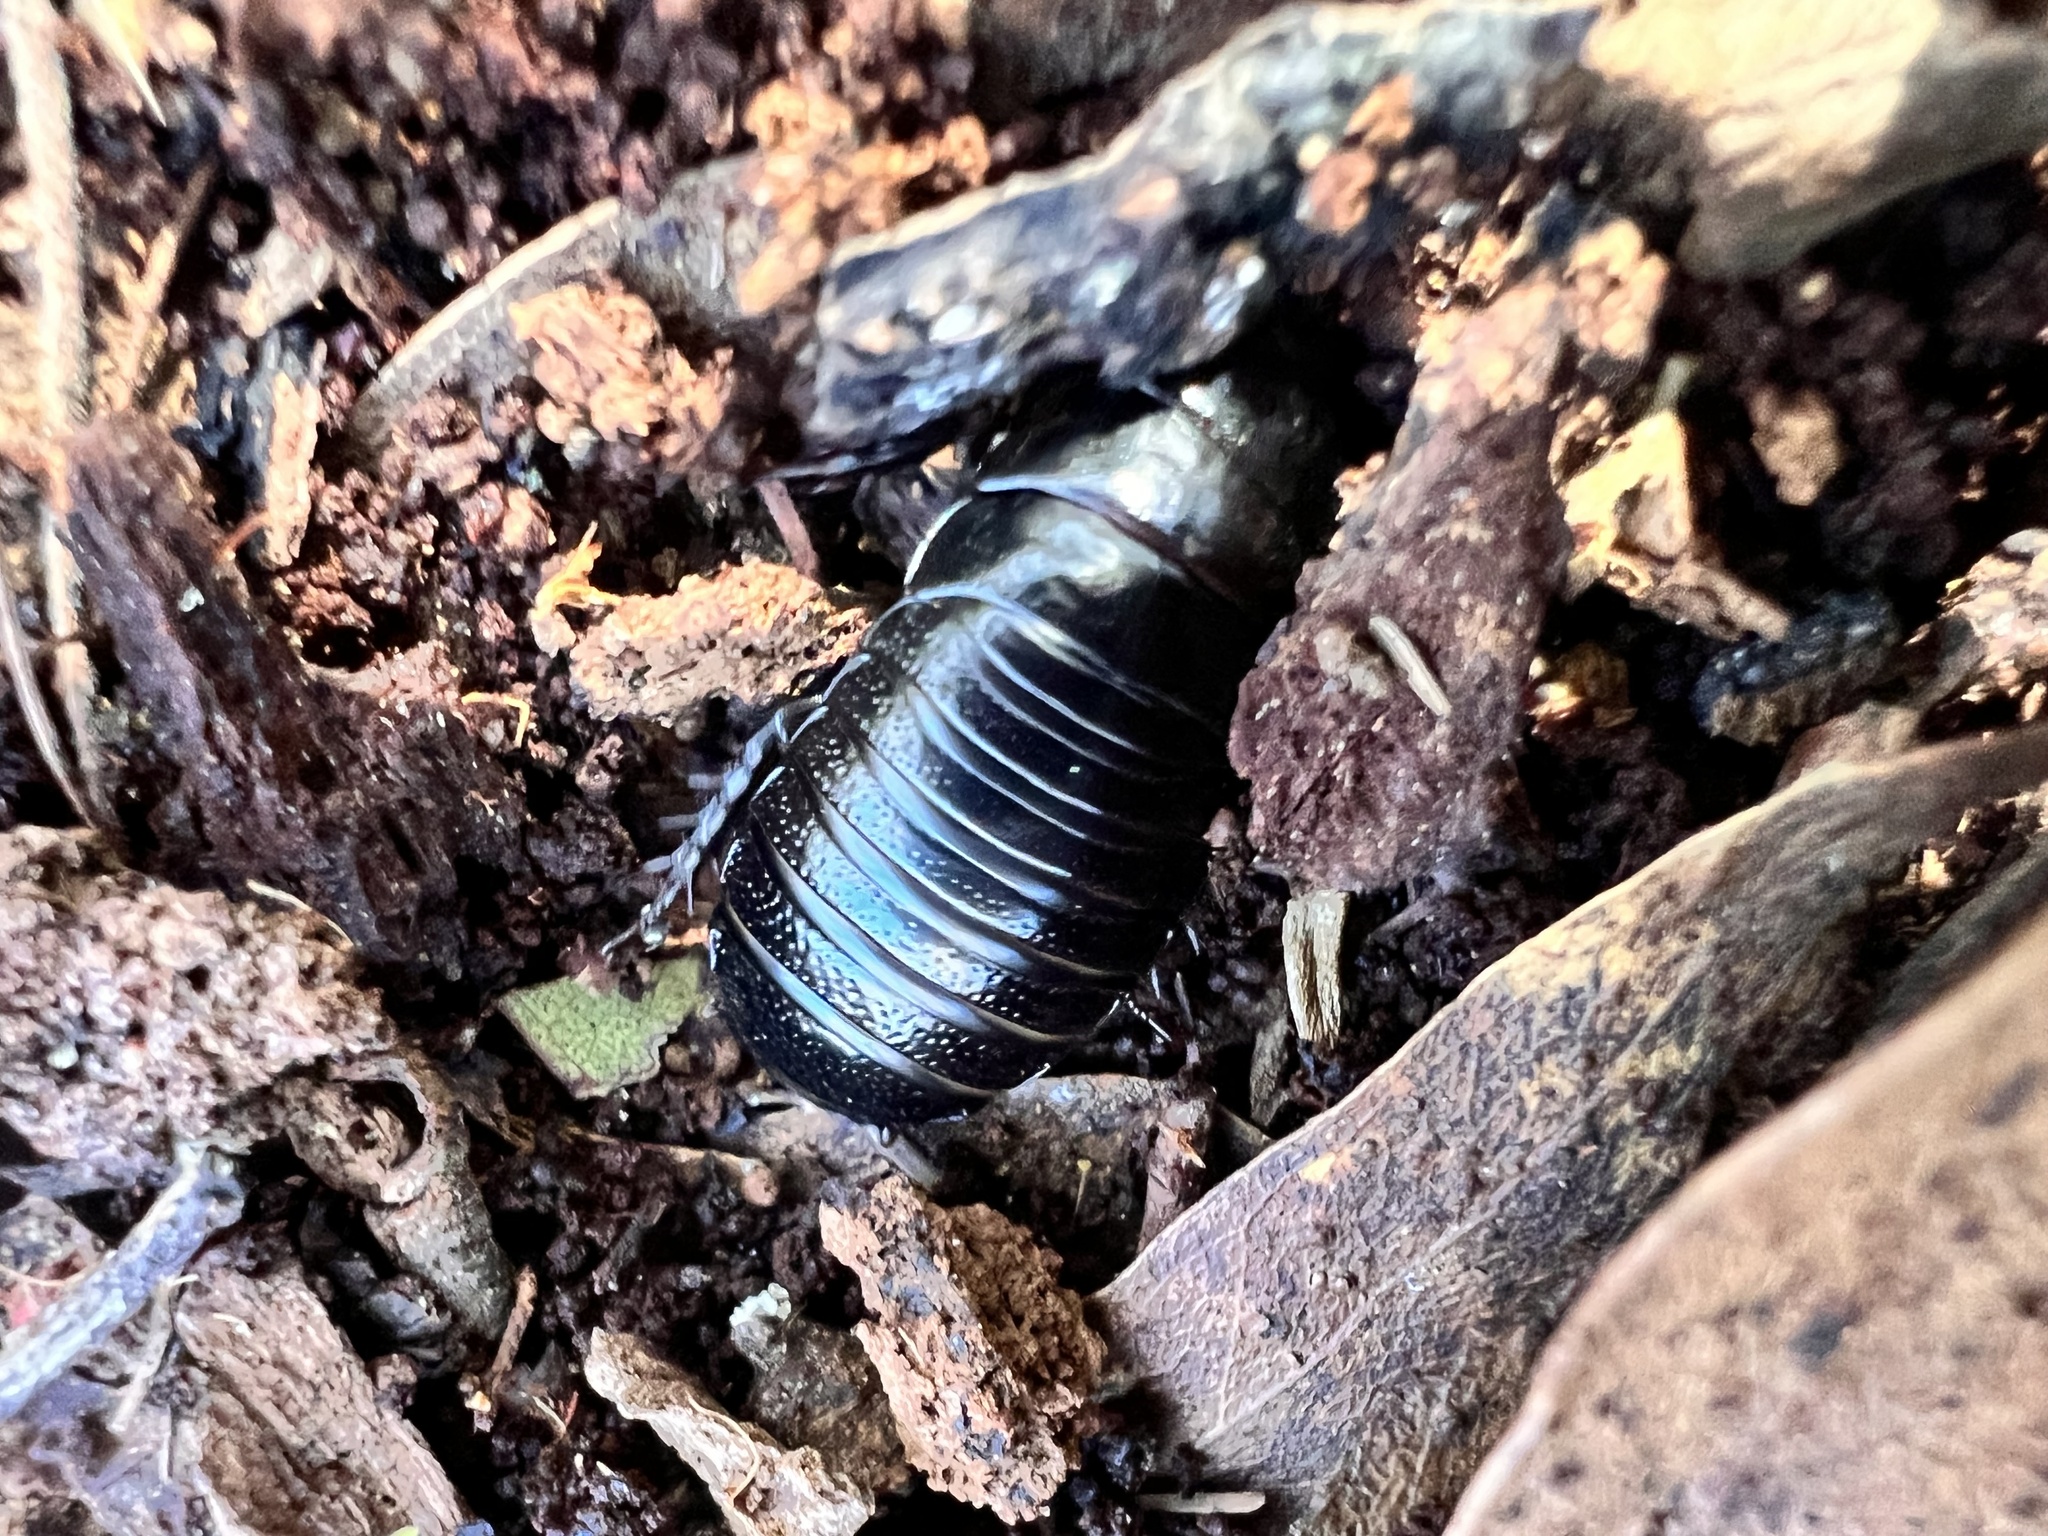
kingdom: Animalia
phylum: Arthropoda
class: Insecta
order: Blattodea
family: Blaberidae
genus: Panesthia
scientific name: Panesthia australis
